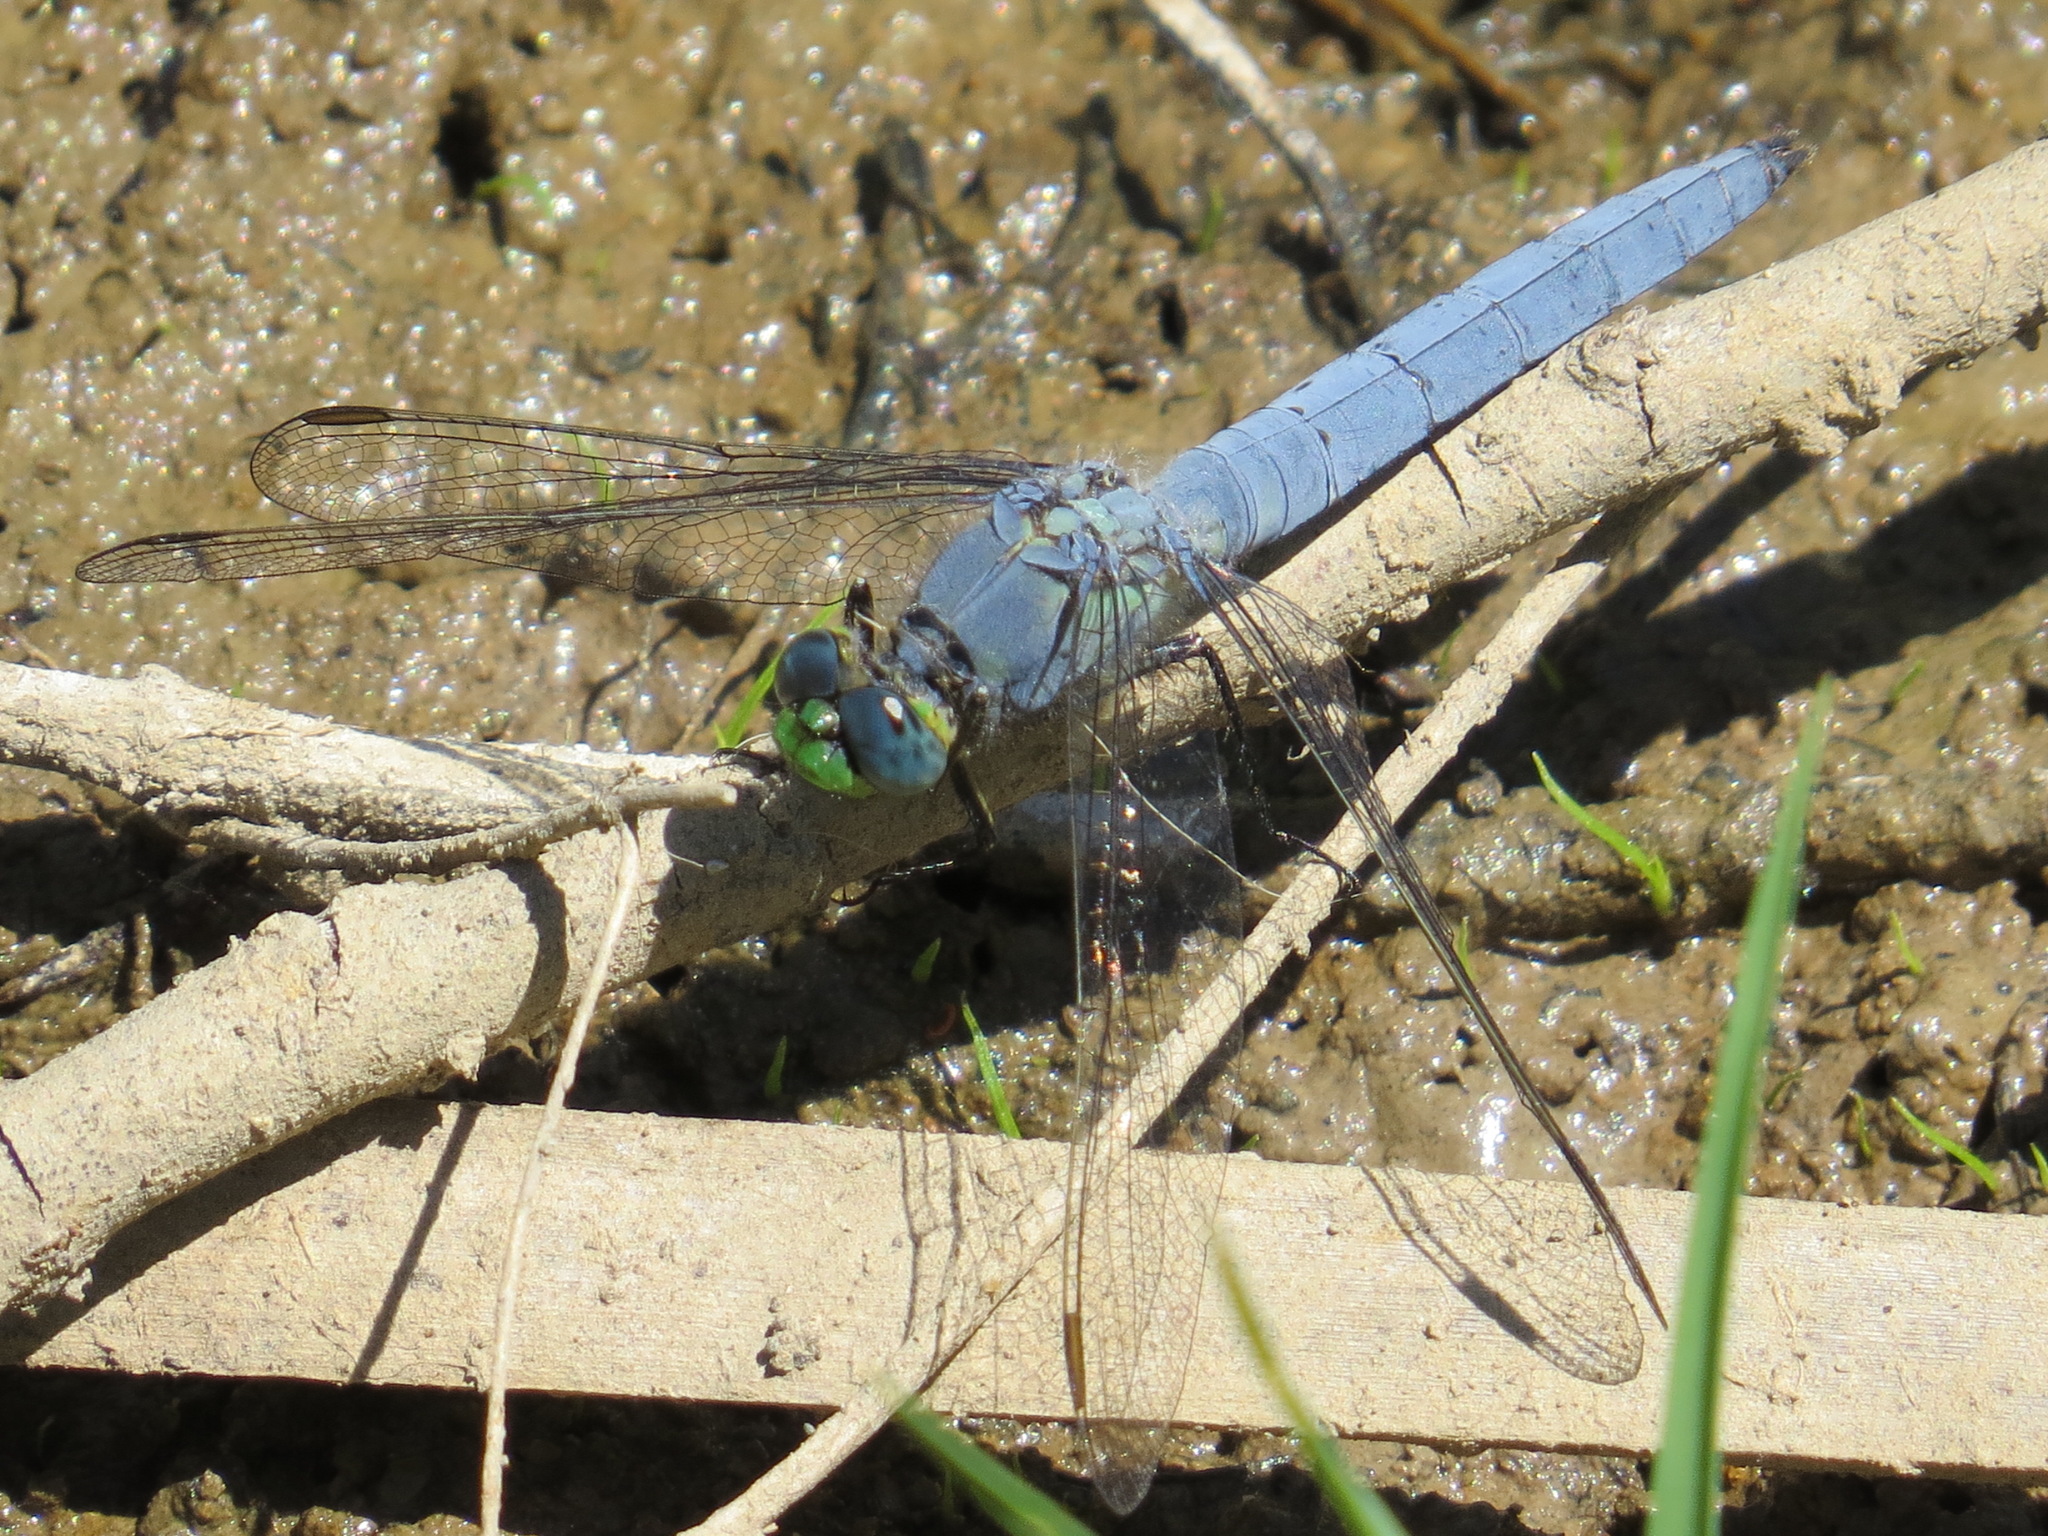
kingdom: Animalia
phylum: Arthropoda
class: Insecta
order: Odonata
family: Libellulidae
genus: Erythemis
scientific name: Erythemis collocata
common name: Western pondhawk
